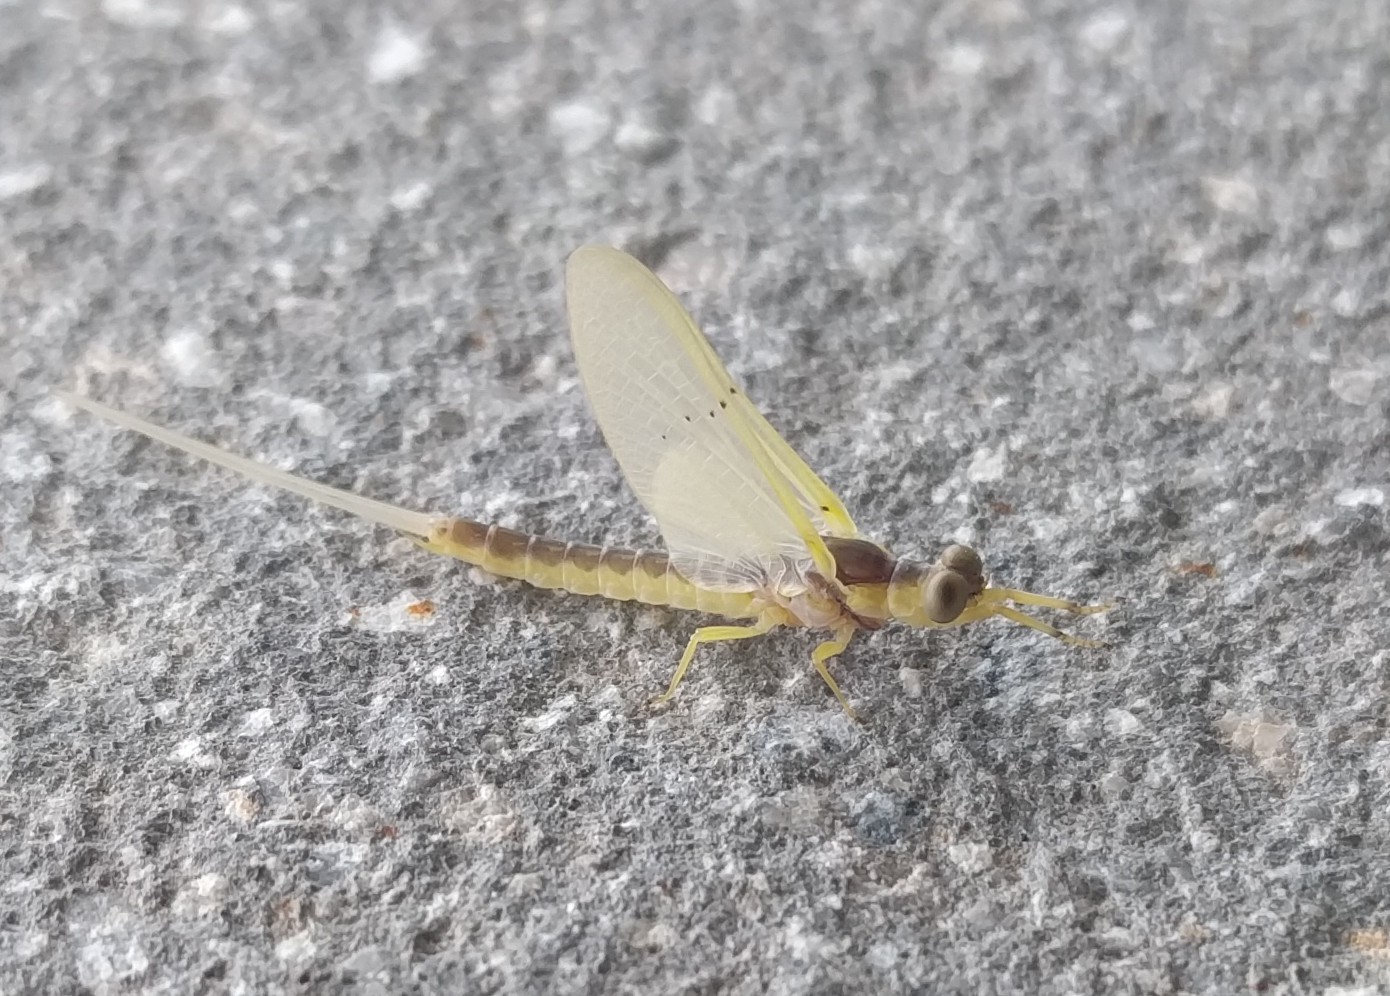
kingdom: Animalia
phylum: Arthropoda
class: Insecta
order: Ephemeroptera
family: Ephemeridae
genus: Pentagenia
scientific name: Pentagenia vittigera
